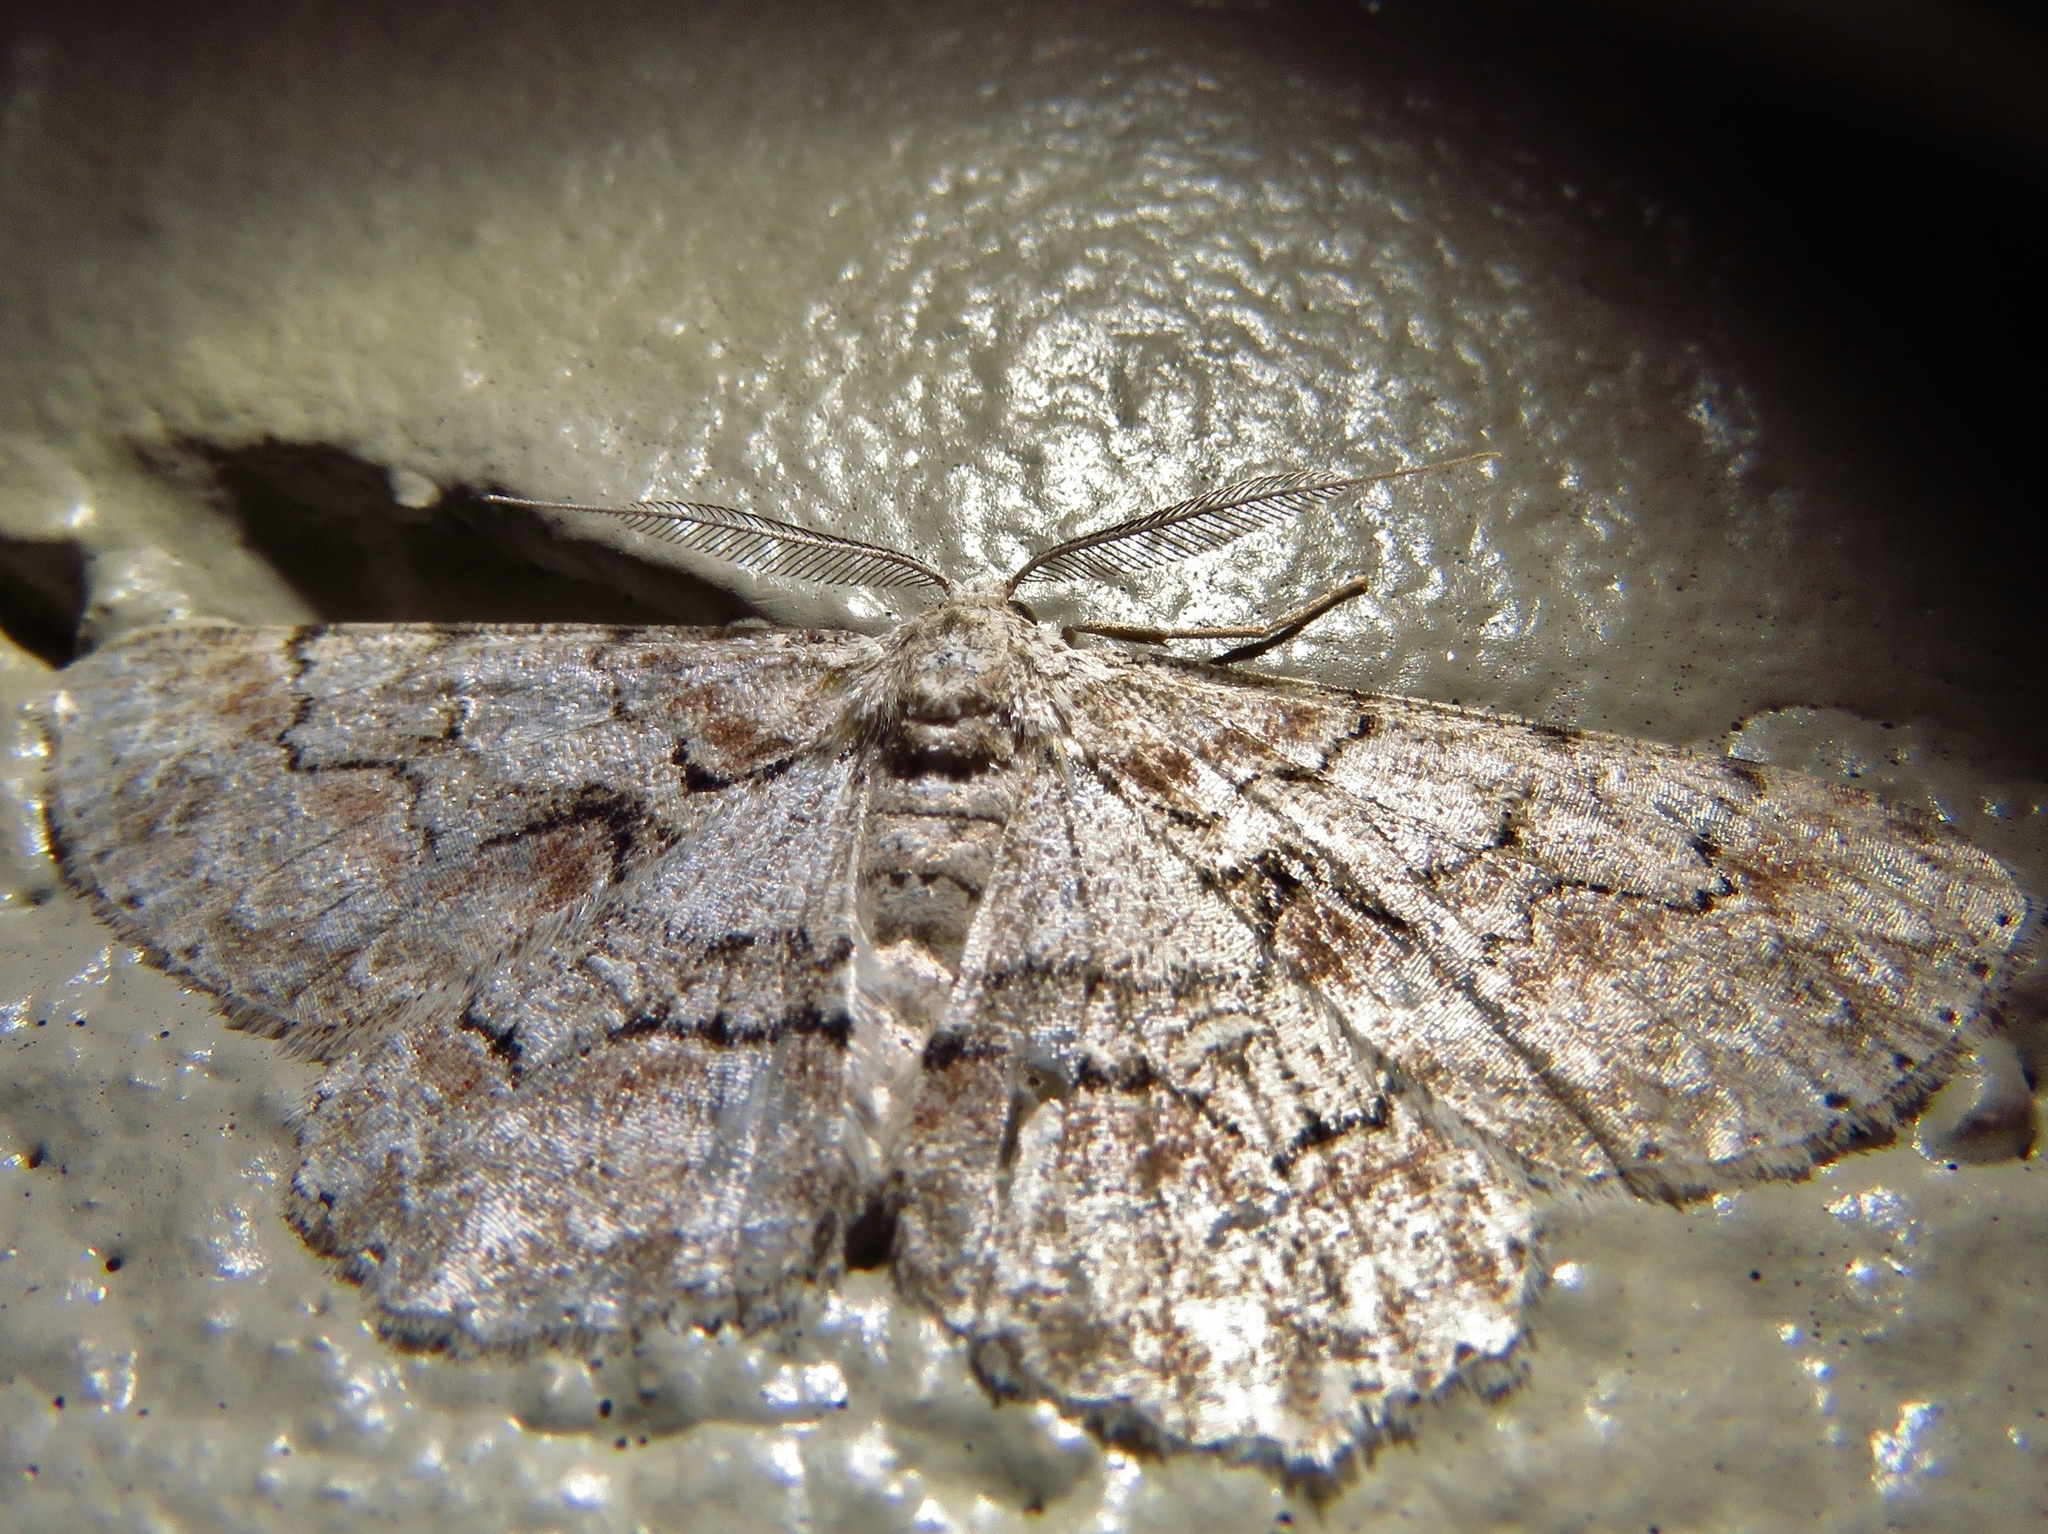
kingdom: Animalia
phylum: Arthropoda
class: Insecta
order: Lepidoptera
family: Geometridae
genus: Iridopsis
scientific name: Iridopsis defectaria
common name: Brown-shaded gray
